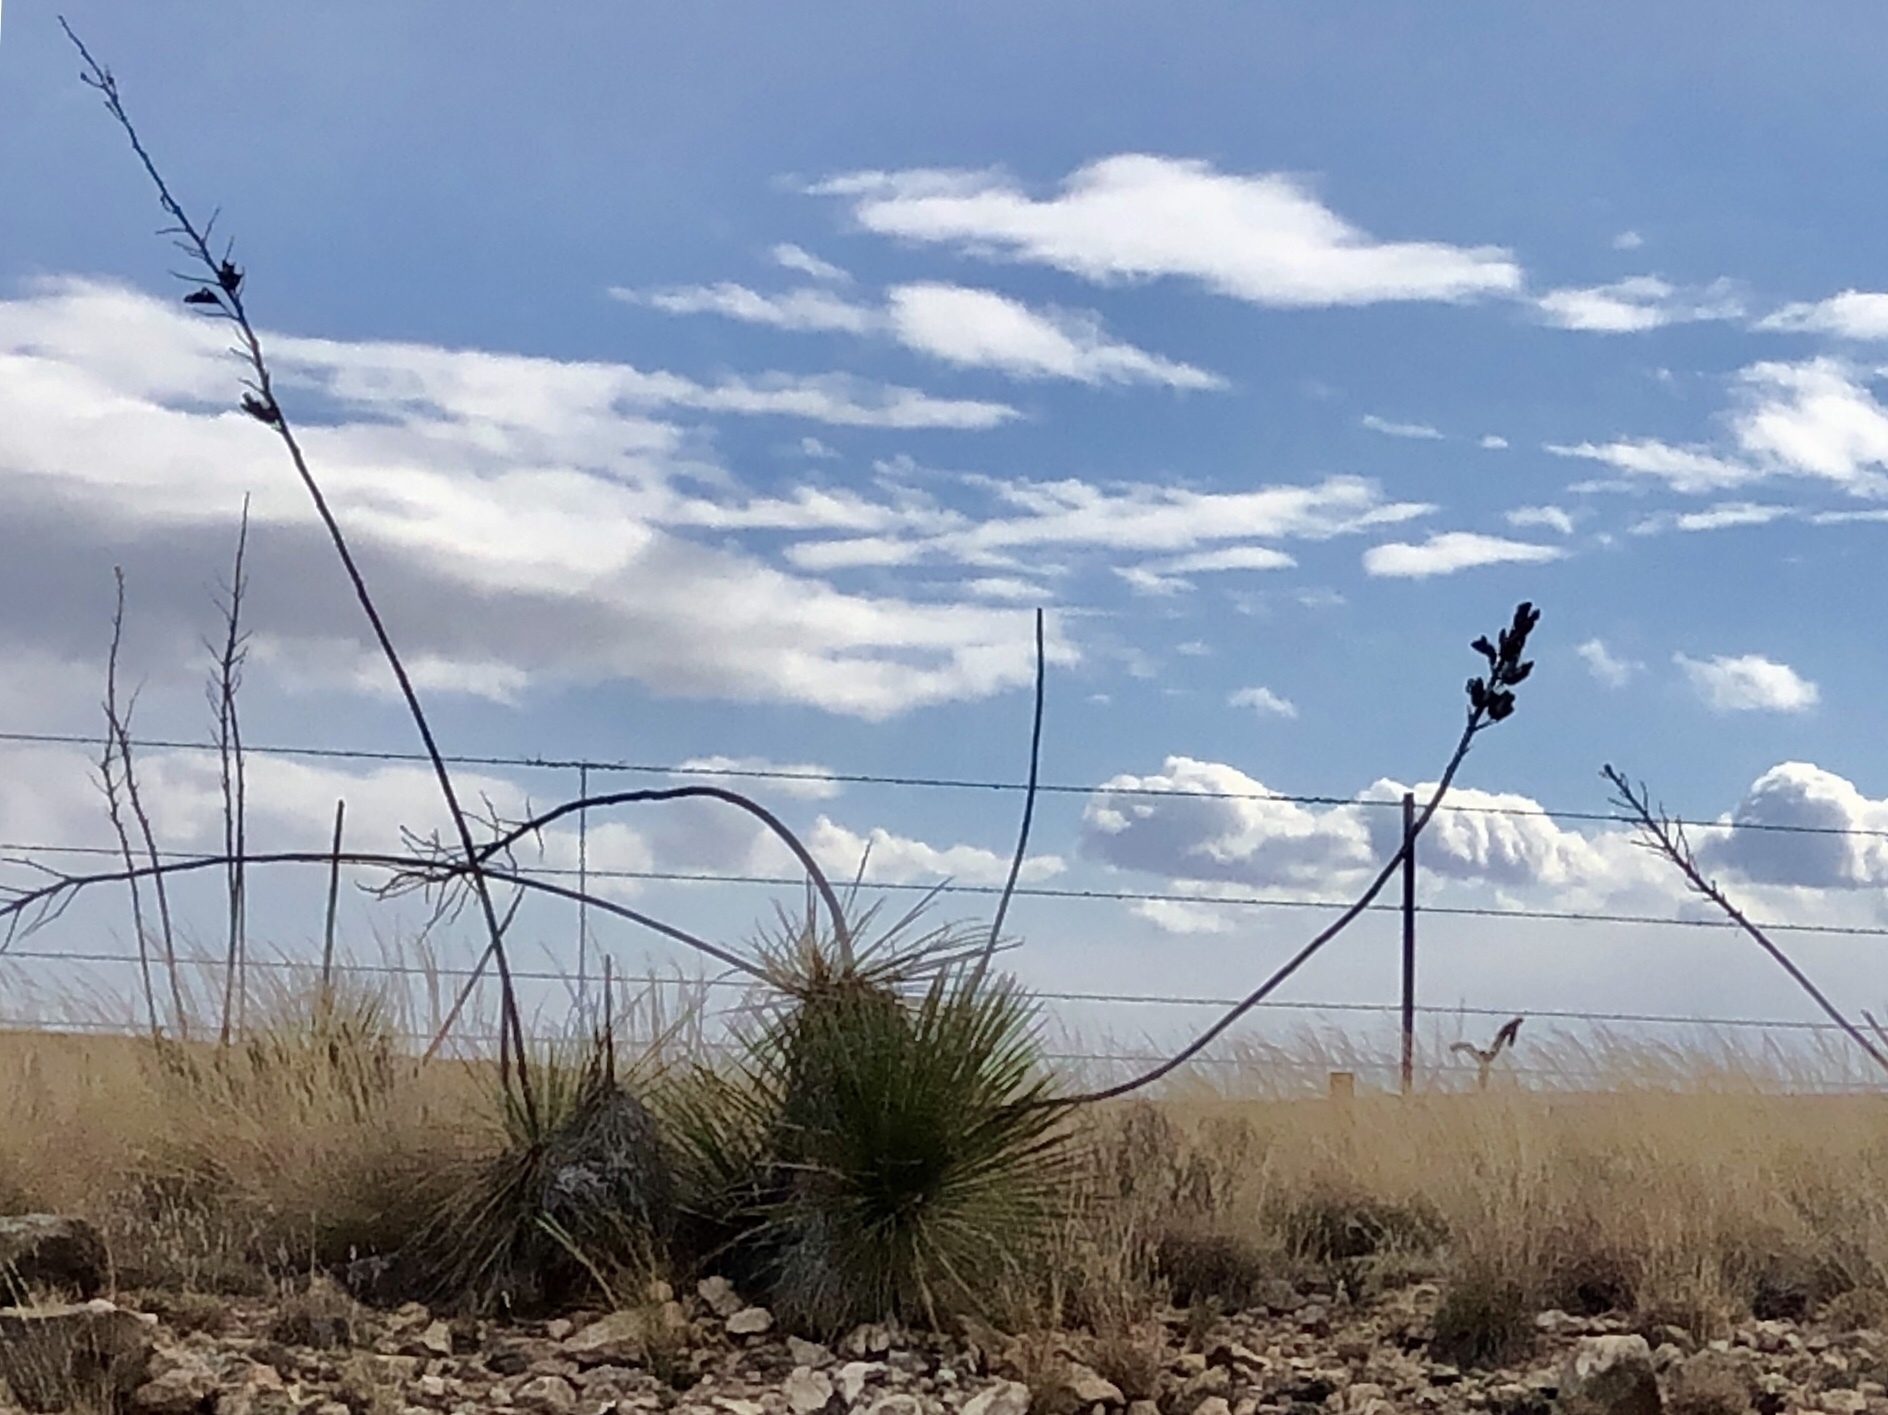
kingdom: Plantae
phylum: Tracheophyta
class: Liliopsida
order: Asparagales
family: Asparagaceae
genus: Yucca
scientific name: Yucca elata
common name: Palmella
